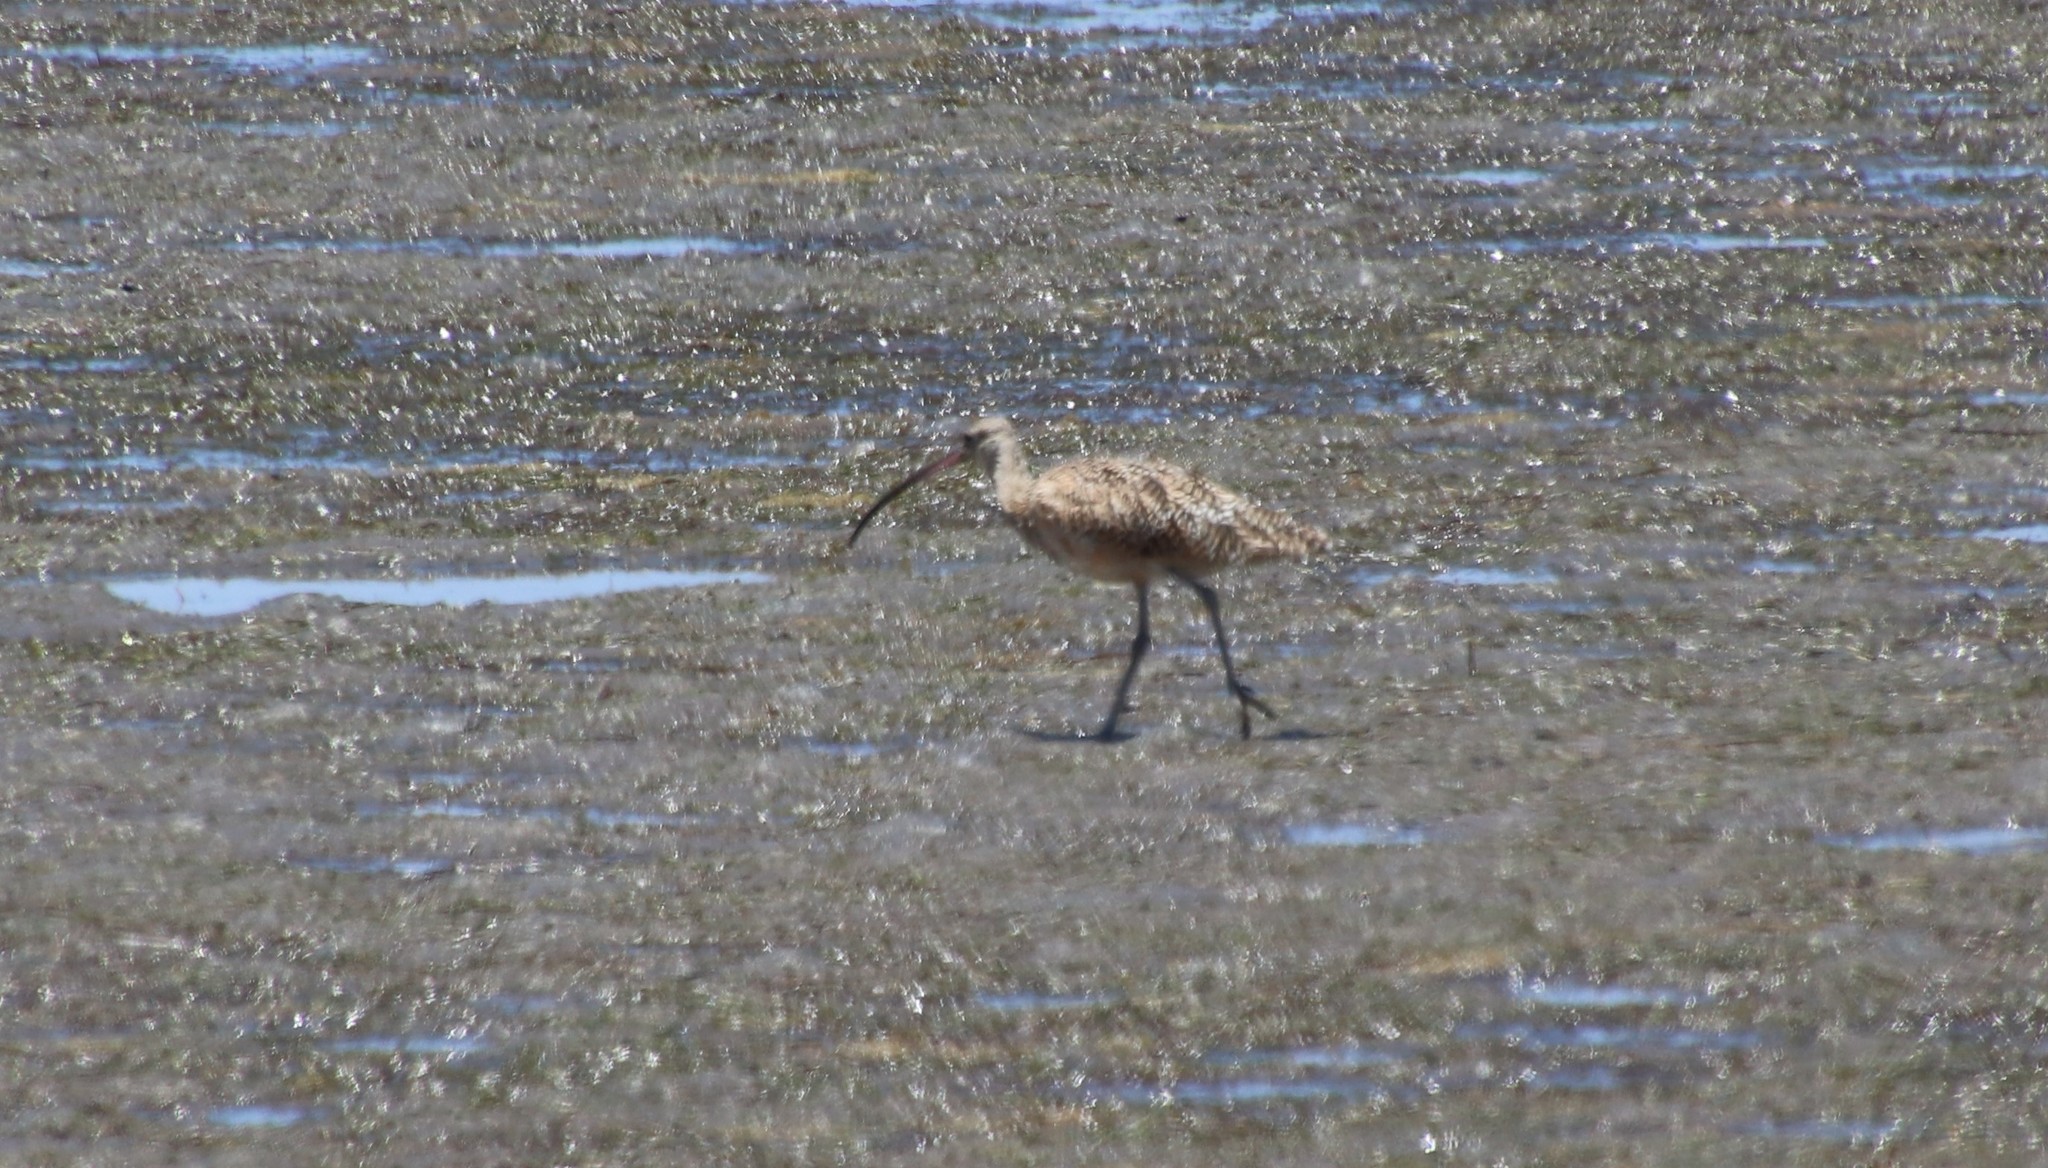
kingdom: Animalia
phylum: Chordata
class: Aves
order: Charadriiformes
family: Scolopacidae
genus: Numenius
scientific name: Numenius americanus
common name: Long-billed curlew
